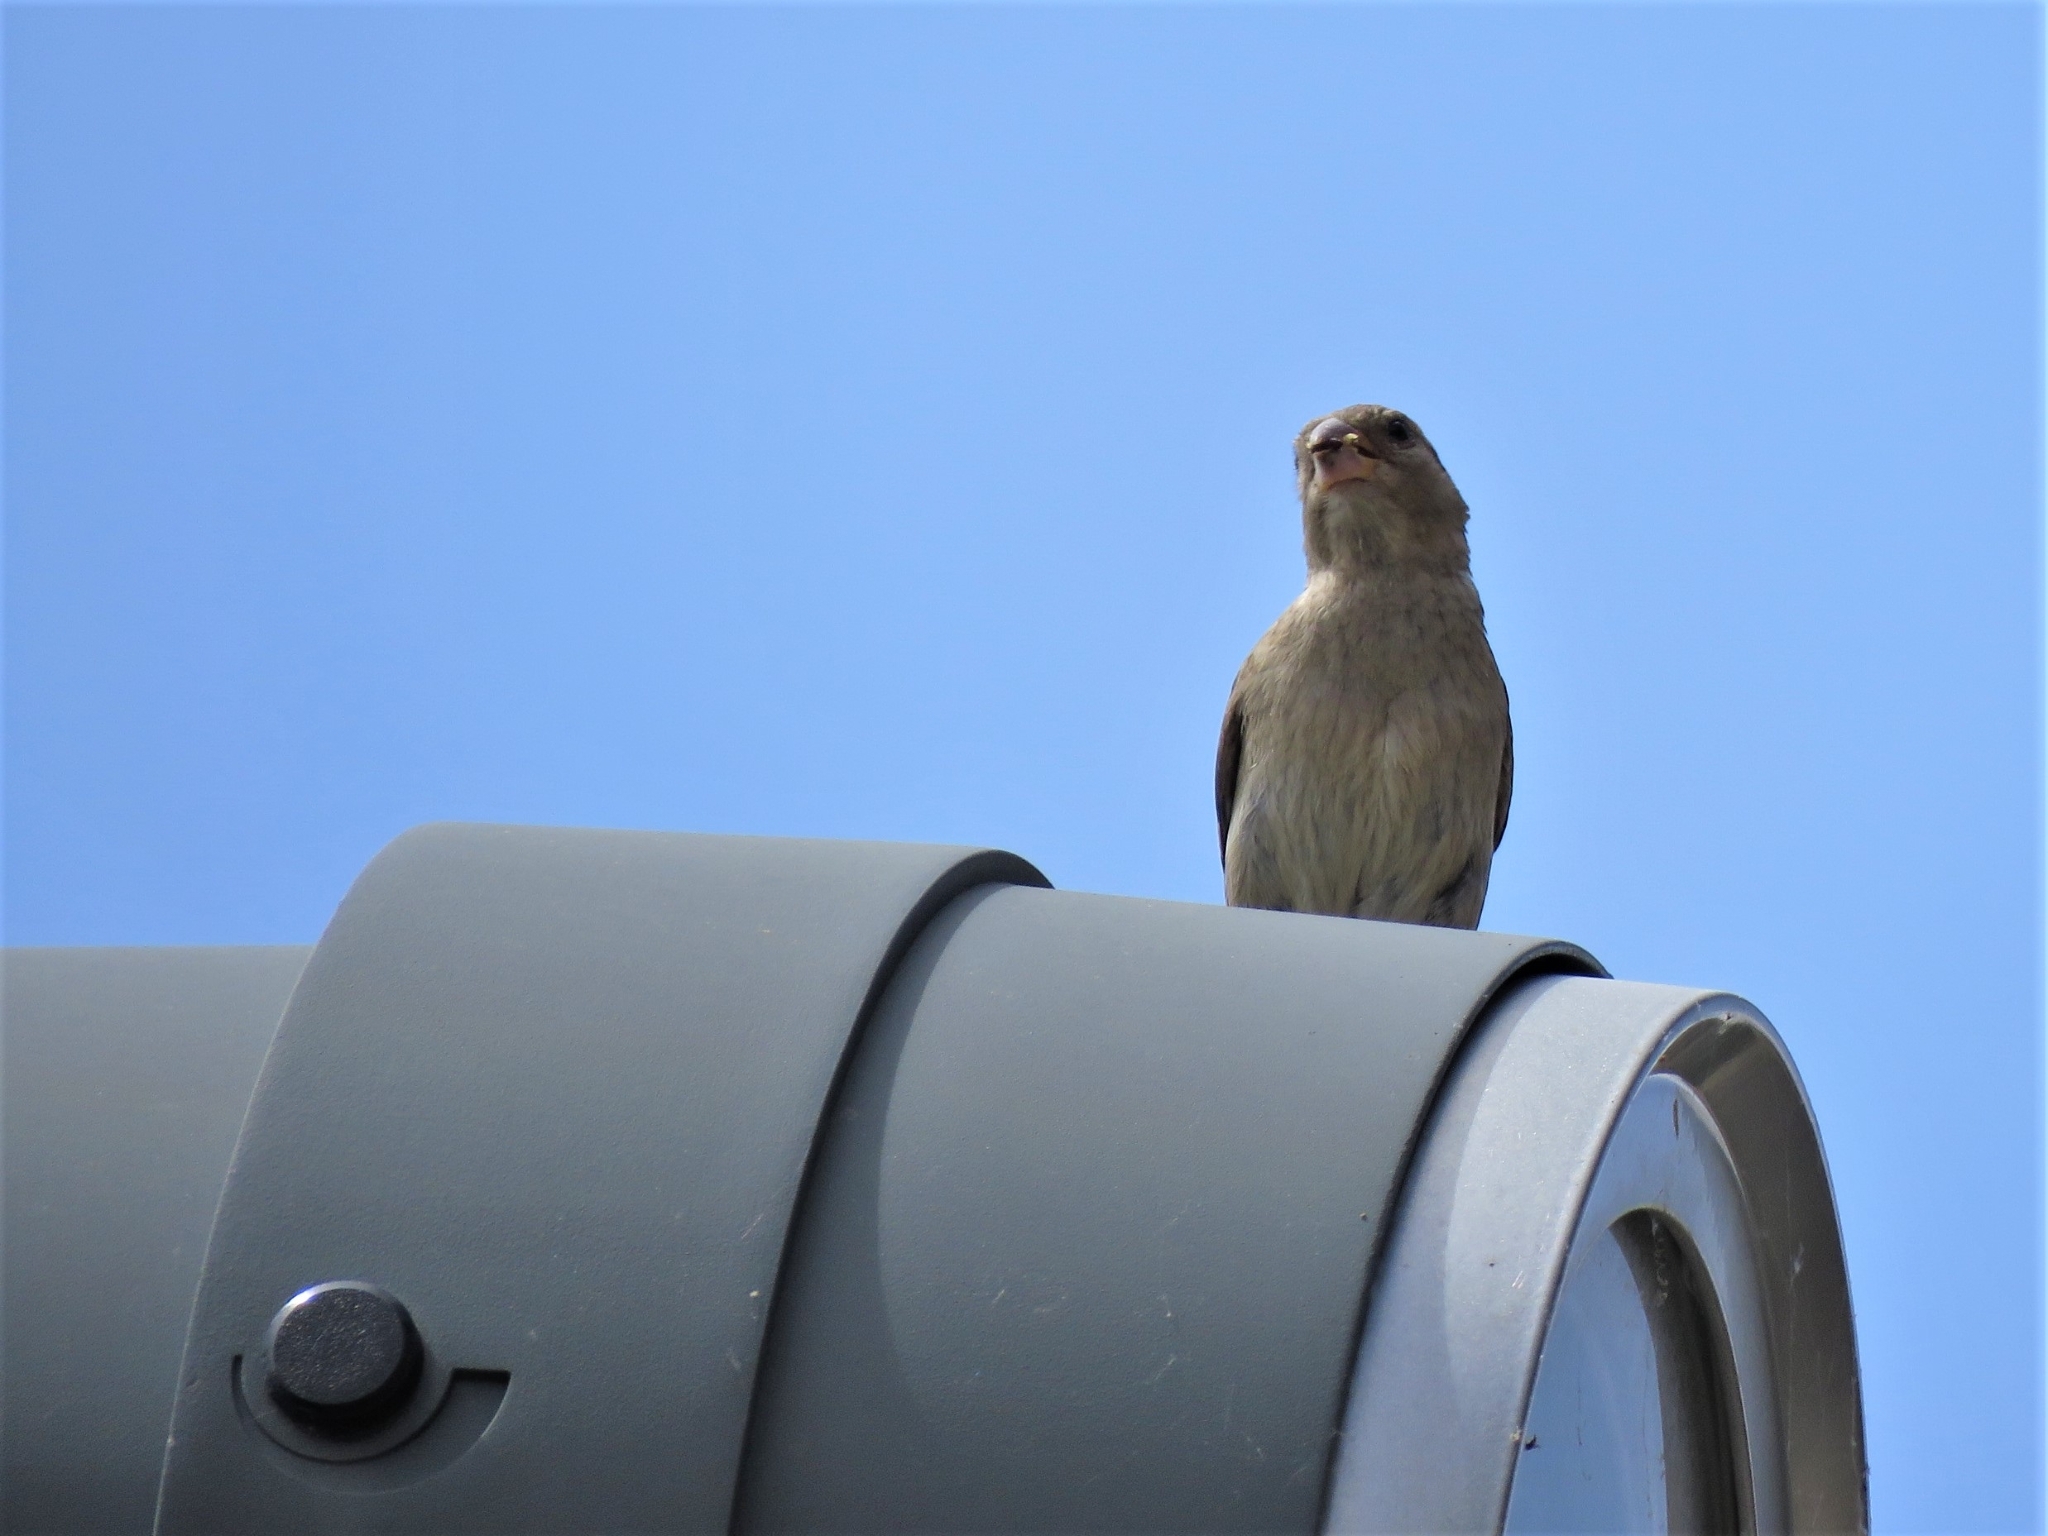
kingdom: Animalia
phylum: Chordata
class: Aves
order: Passeriformes
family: Passeridae
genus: Passer
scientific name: Passer domesticus
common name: House sparrow
